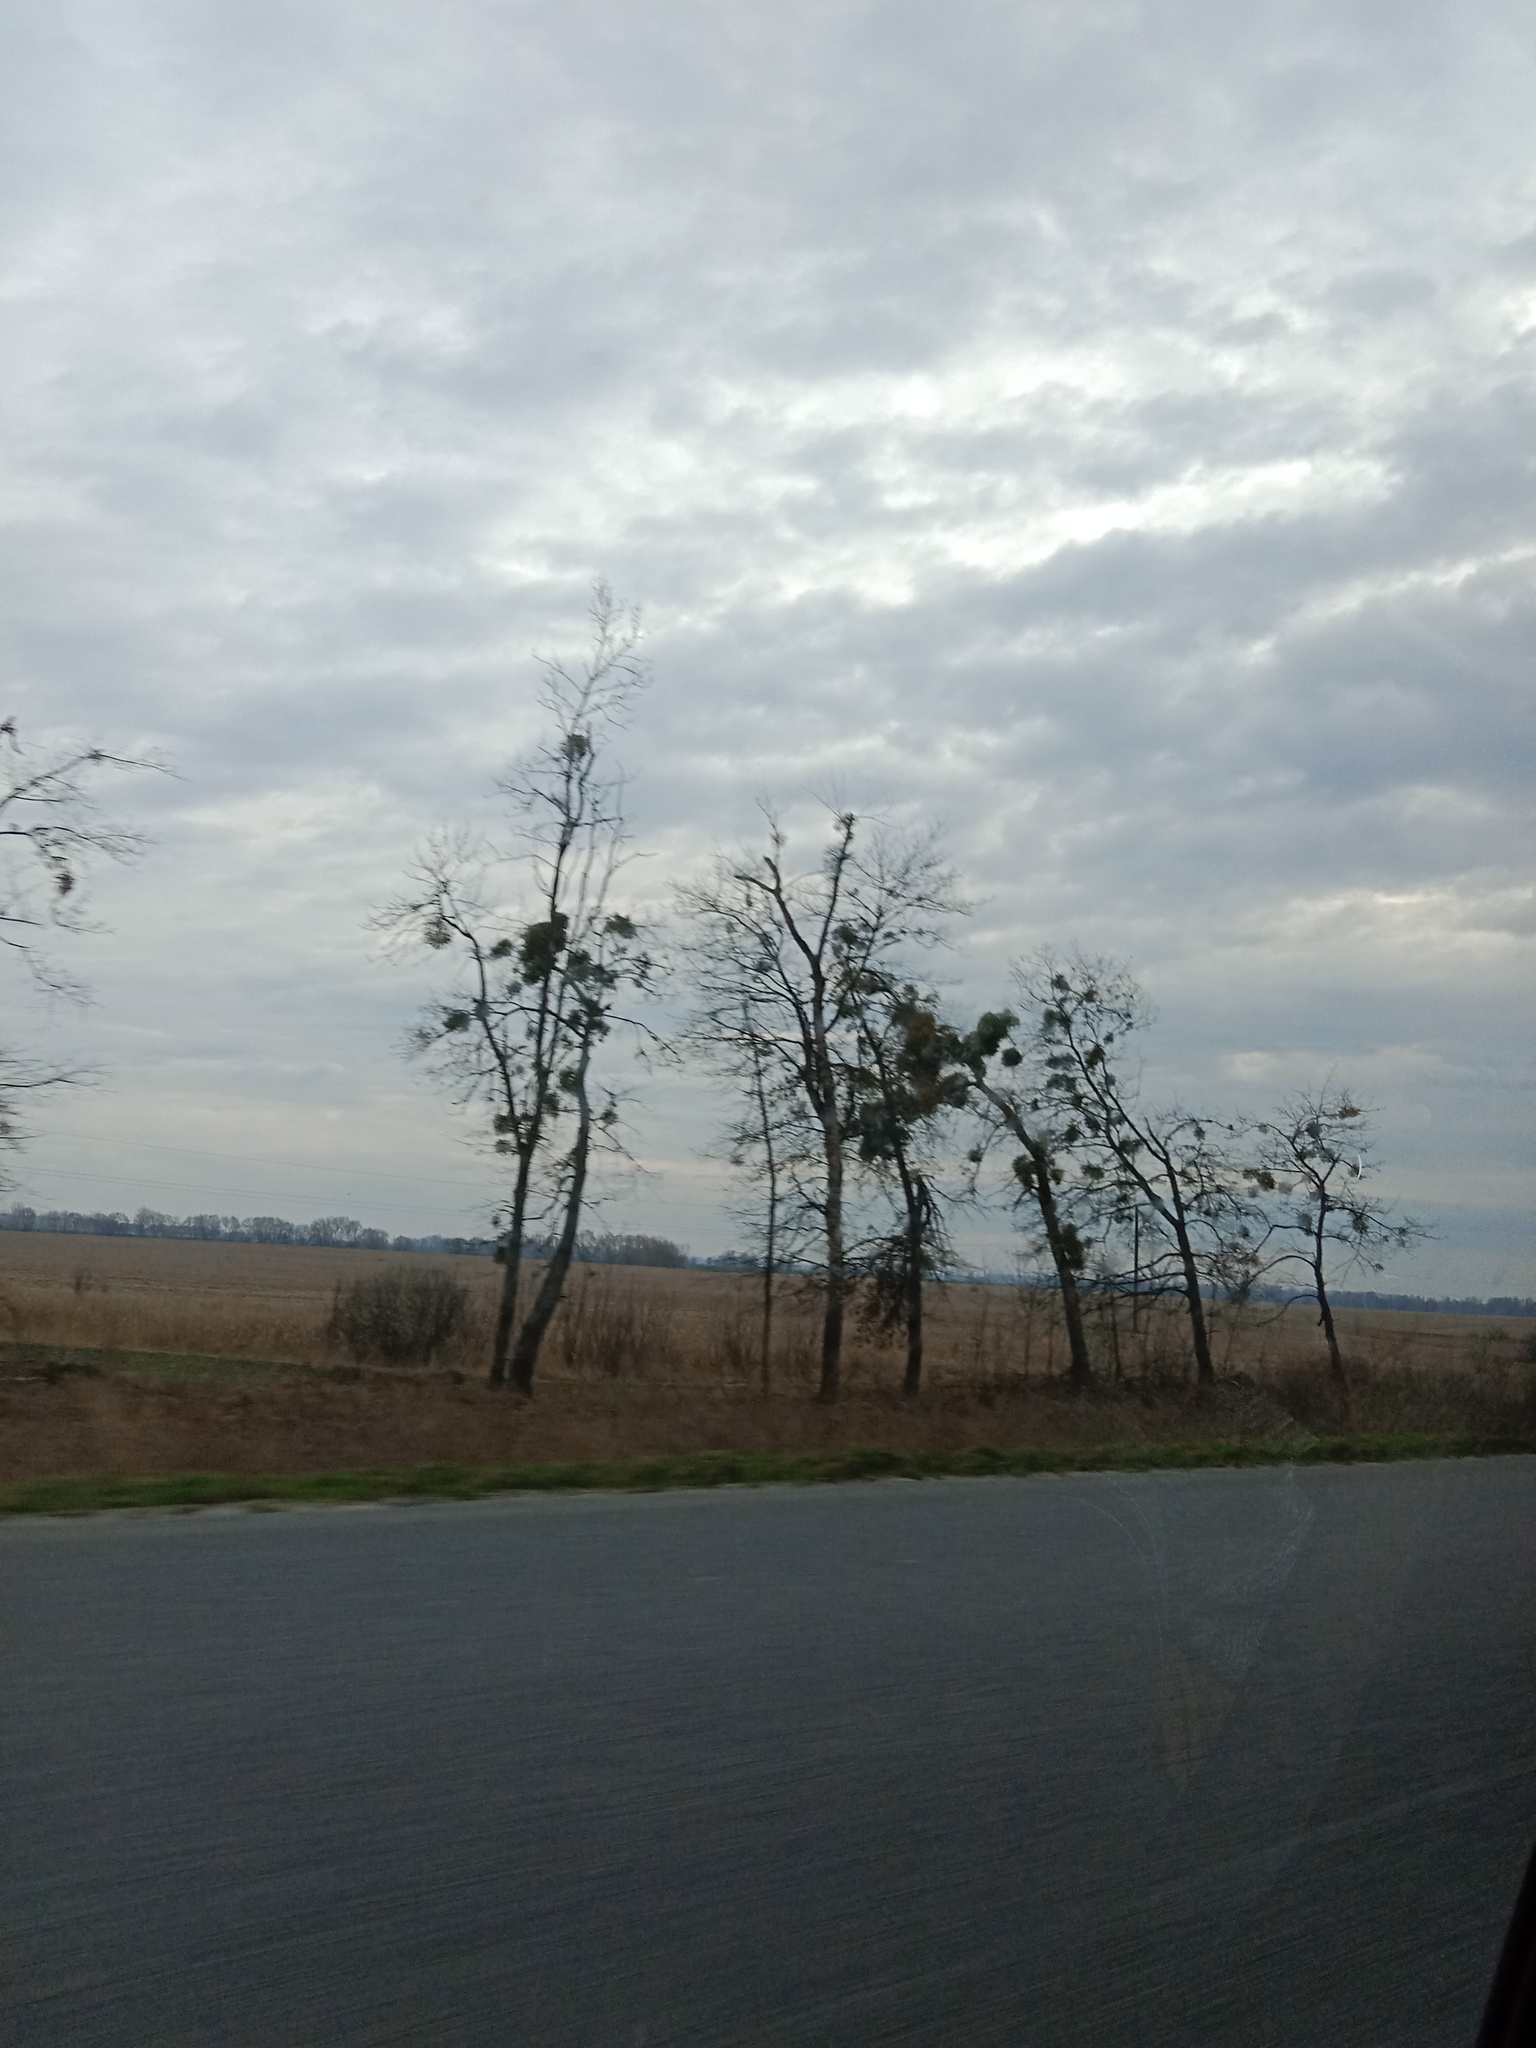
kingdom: Plantae
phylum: Tracheophyta
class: Magnoliopsida
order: Santalales
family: Viscaceae
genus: Viscum
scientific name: Viscum album
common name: Mistletoe
